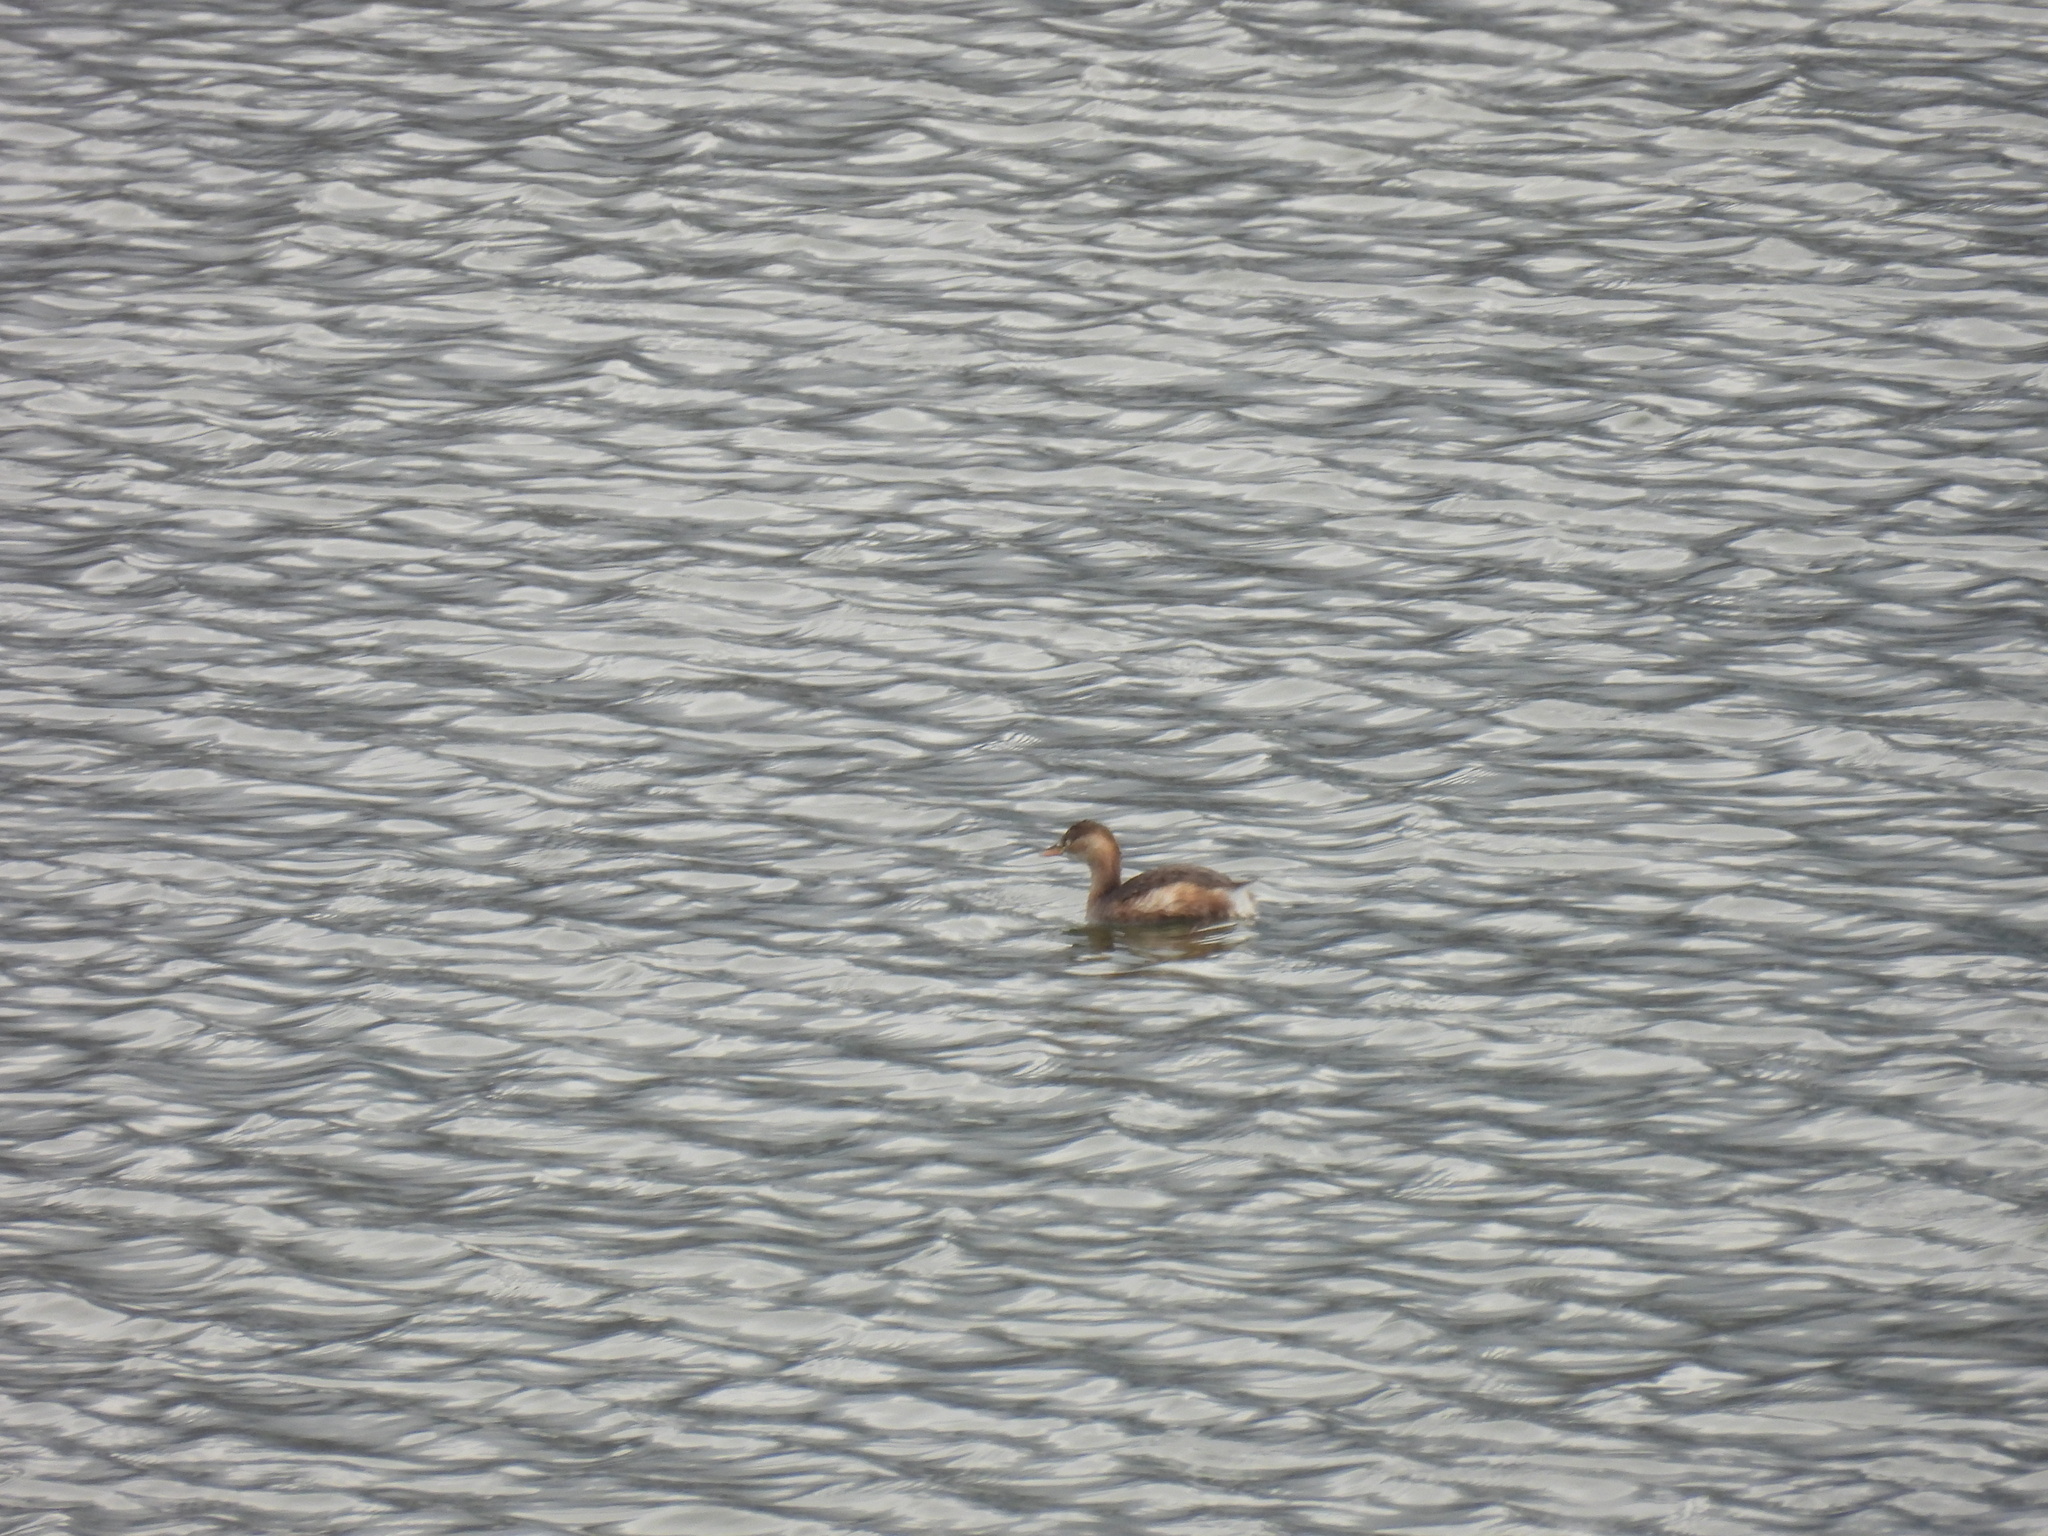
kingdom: Animalia
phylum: Chordata
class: Aves
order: Podicipediformes
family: Podicipedidae
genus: Tachybaptus
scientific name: Tachybaptus ruficollis
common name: Little grebe
